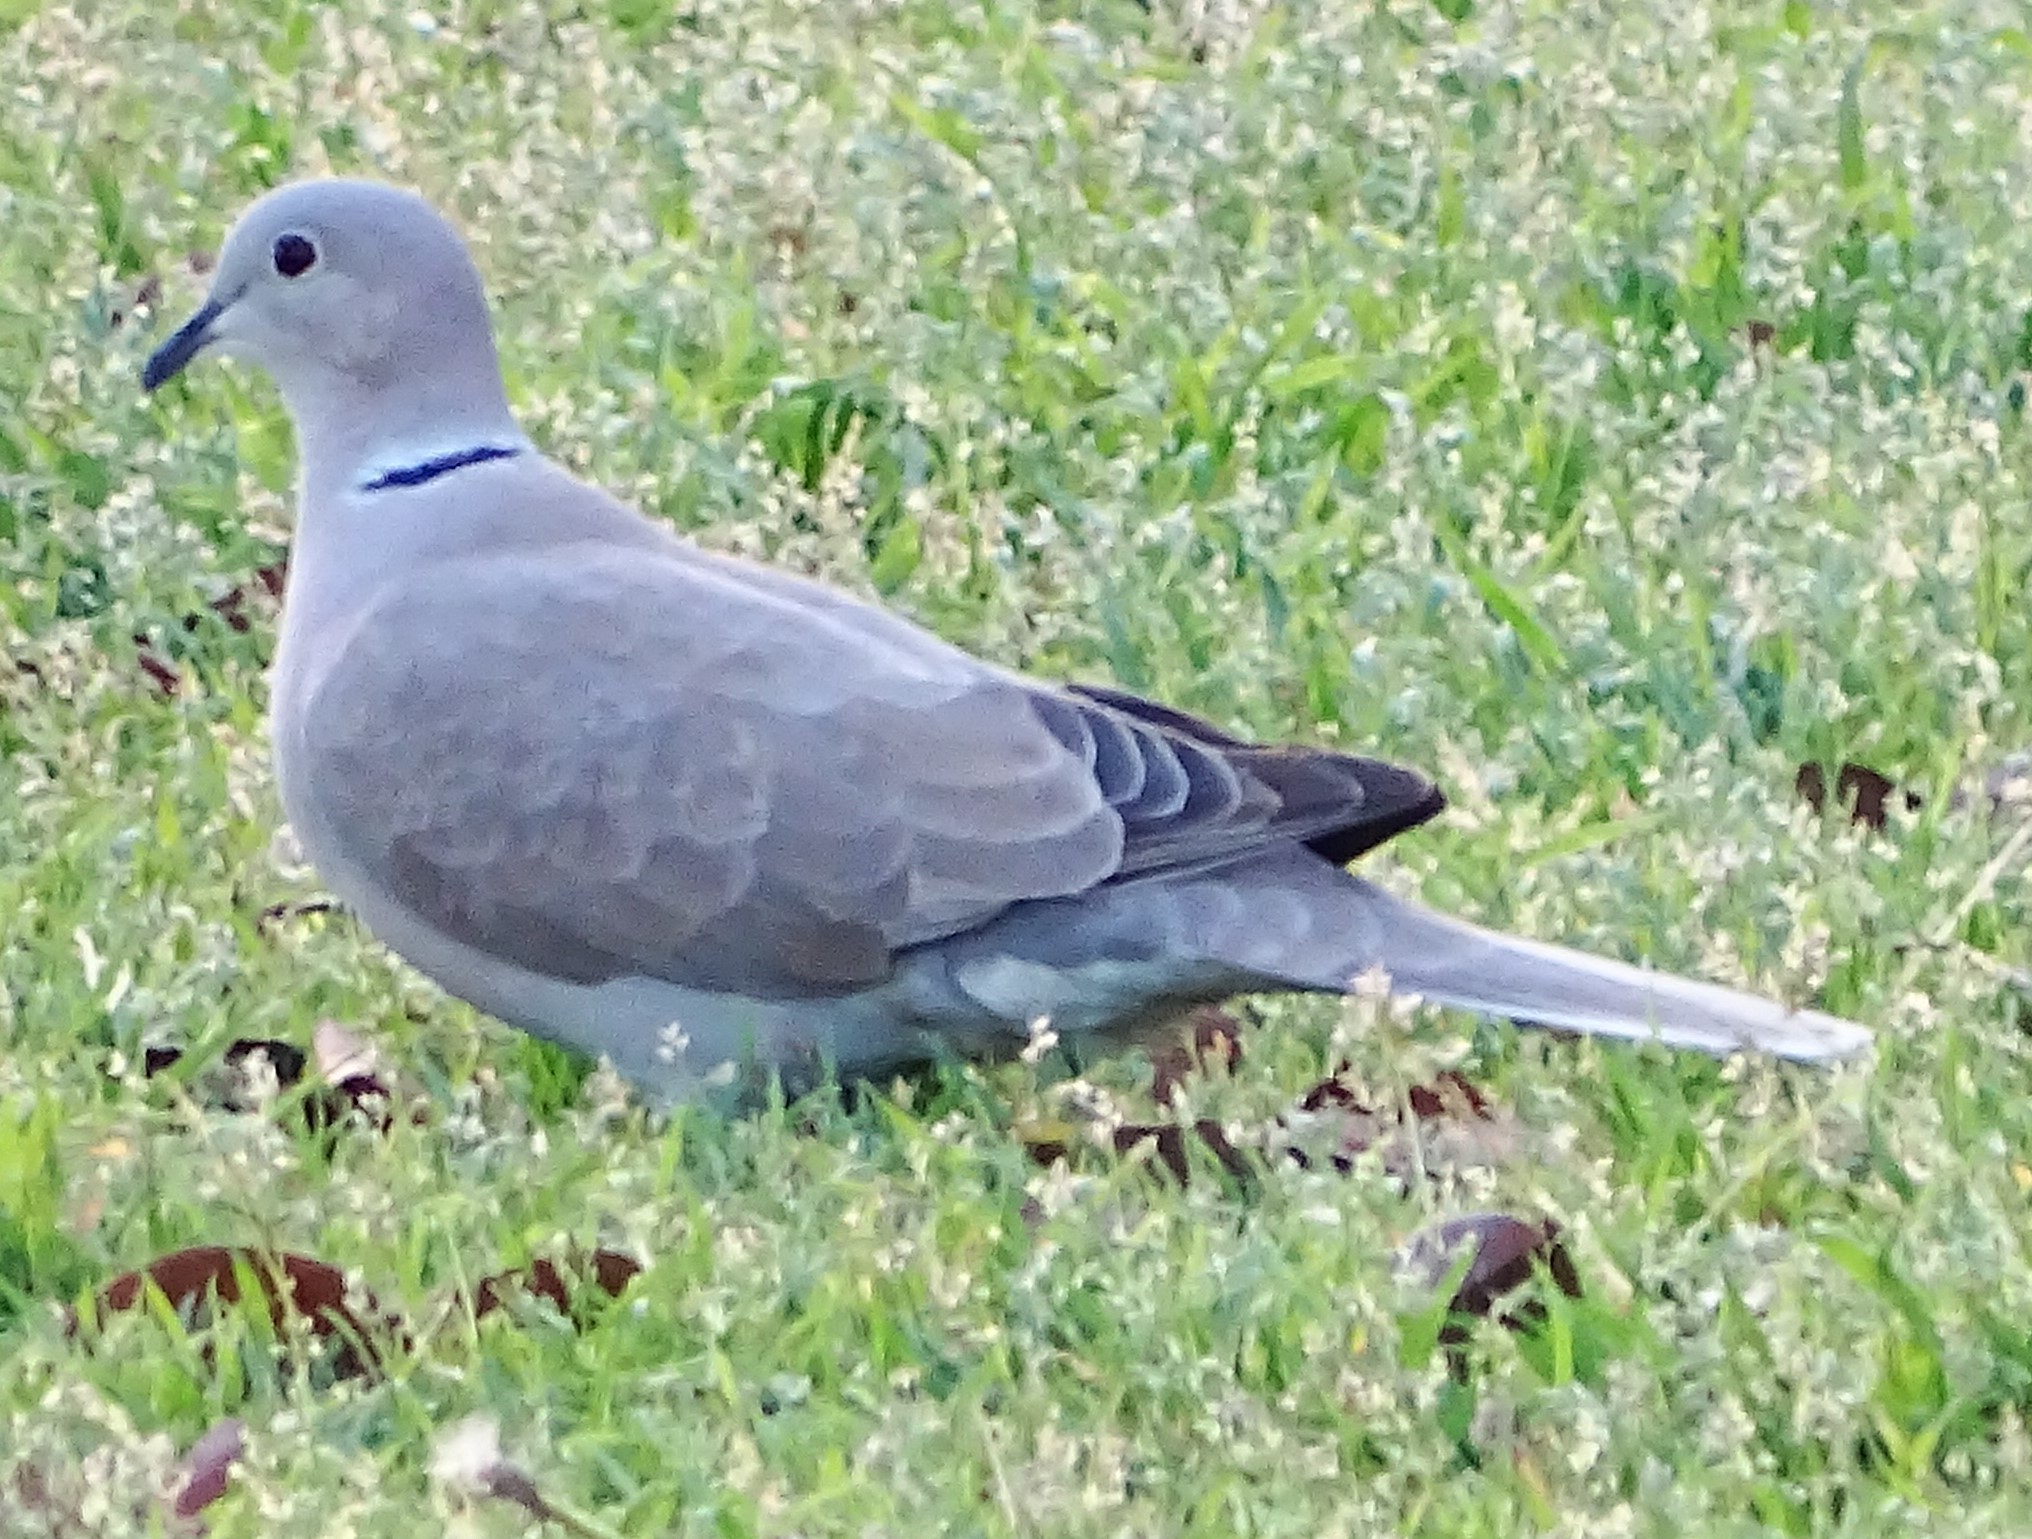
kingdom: Animalia
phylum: Chordata
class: Aves
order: Columbiformes
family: Columbidae
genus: Streptopelia
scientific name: Streptopelia decaocto
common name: Eurasian collared dove
